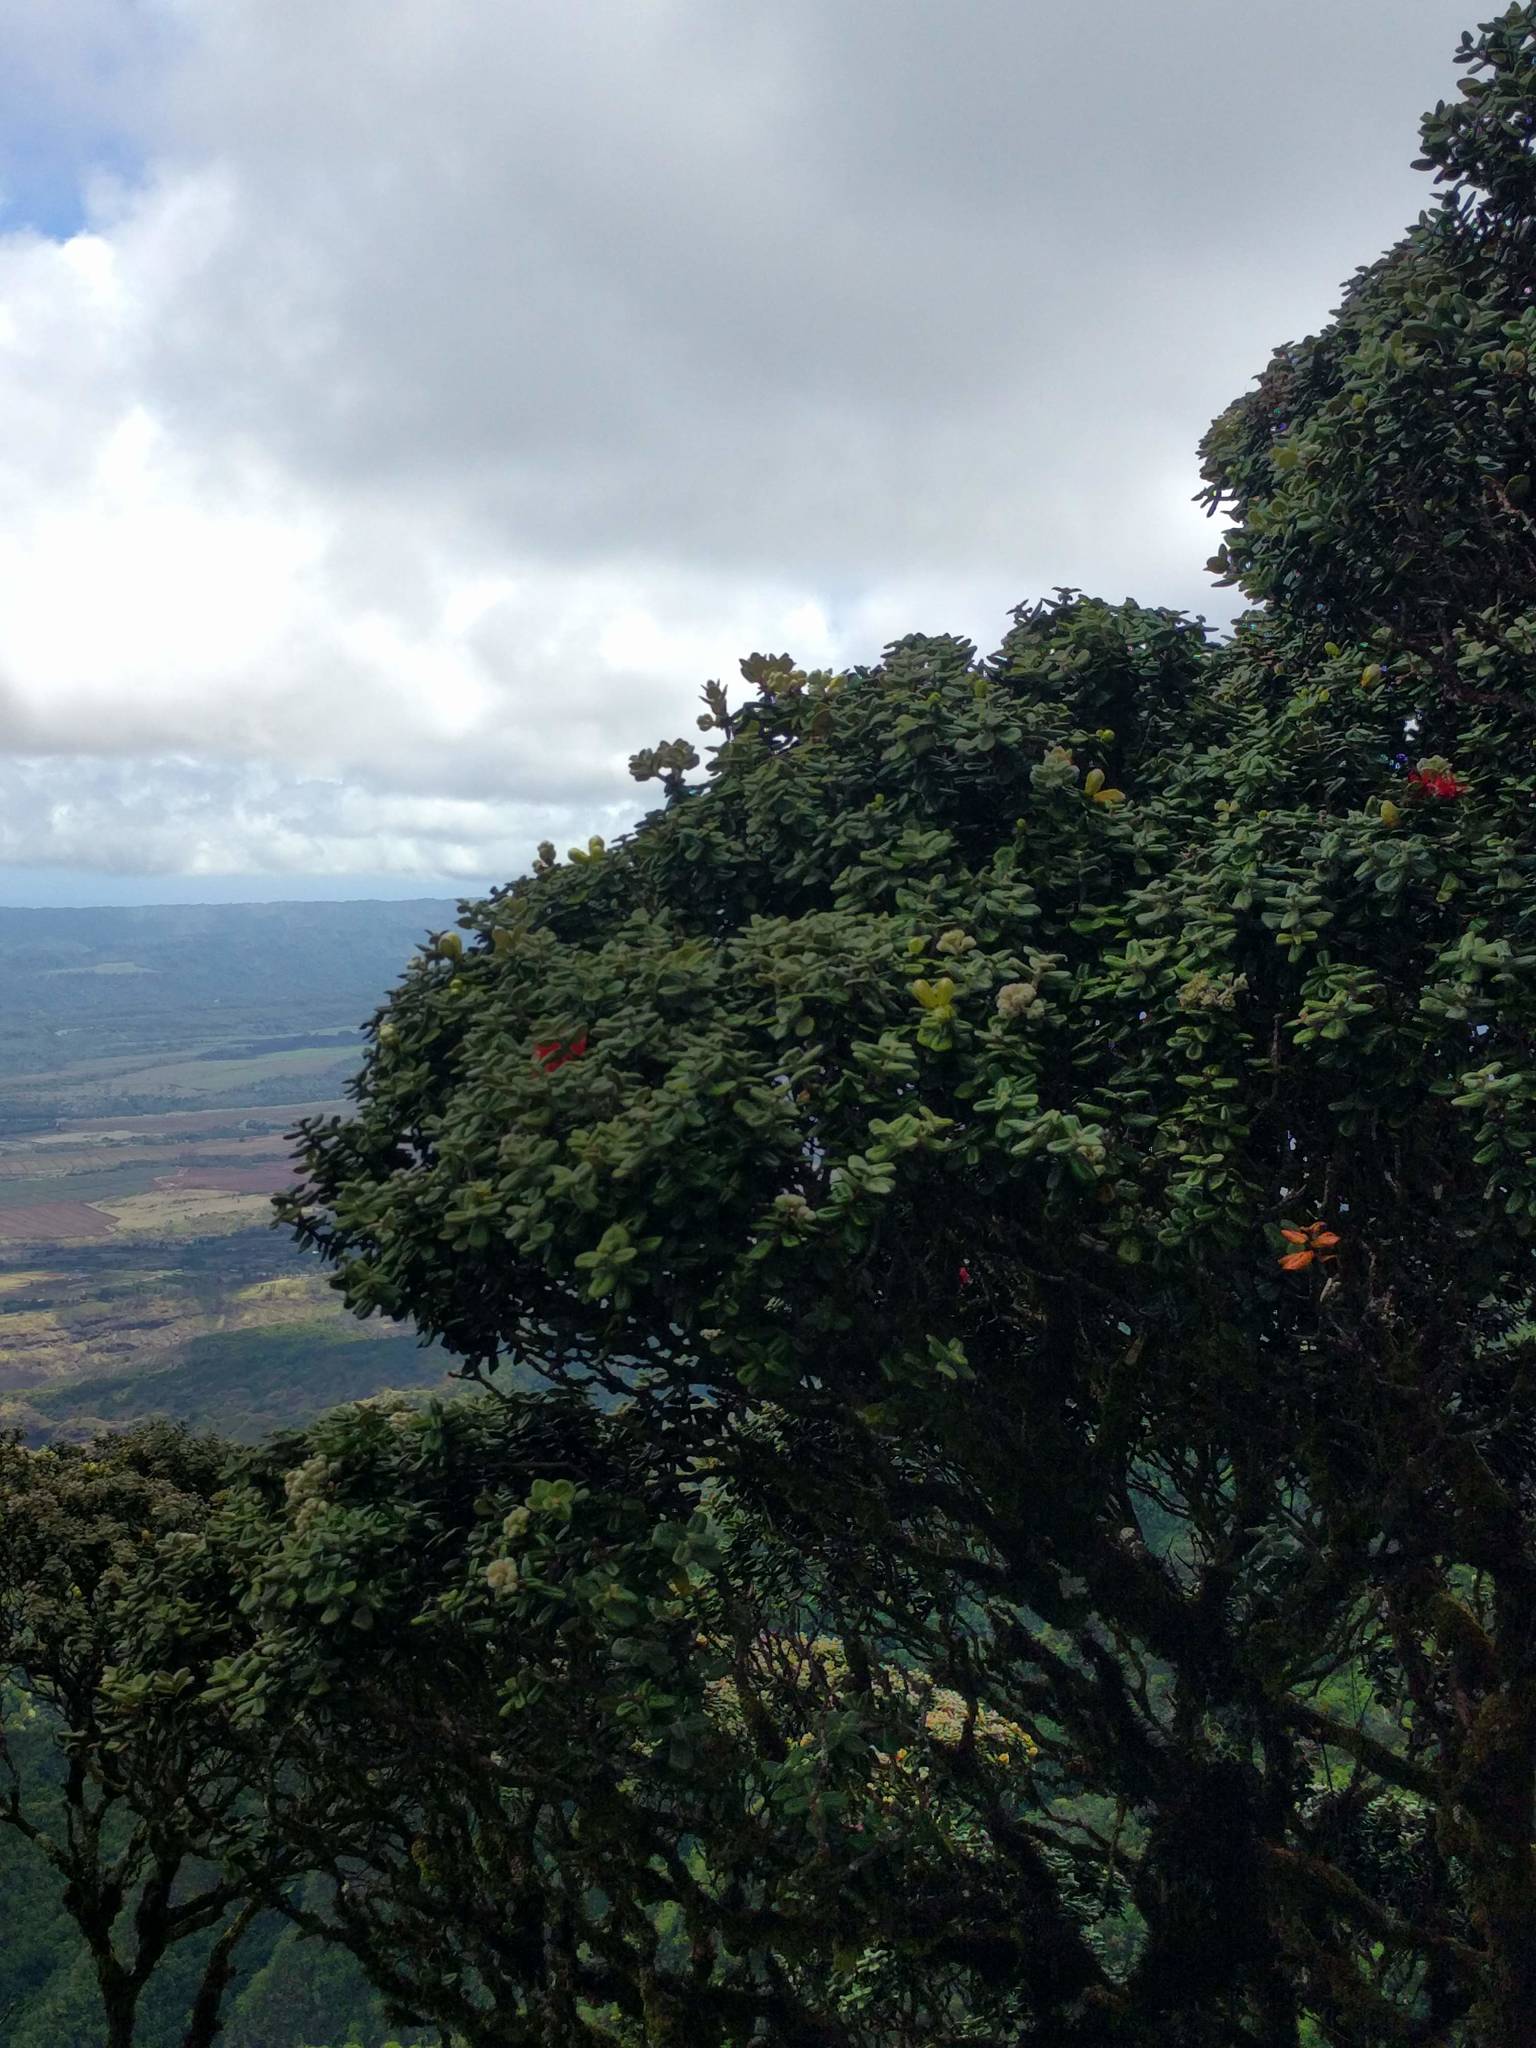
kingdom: Plantae
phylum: Tracheophyta
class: Magnoliopsida
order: Myrtales
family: Myrtaceae
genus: Metrosideros
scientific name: Metrosideros polymorpha
